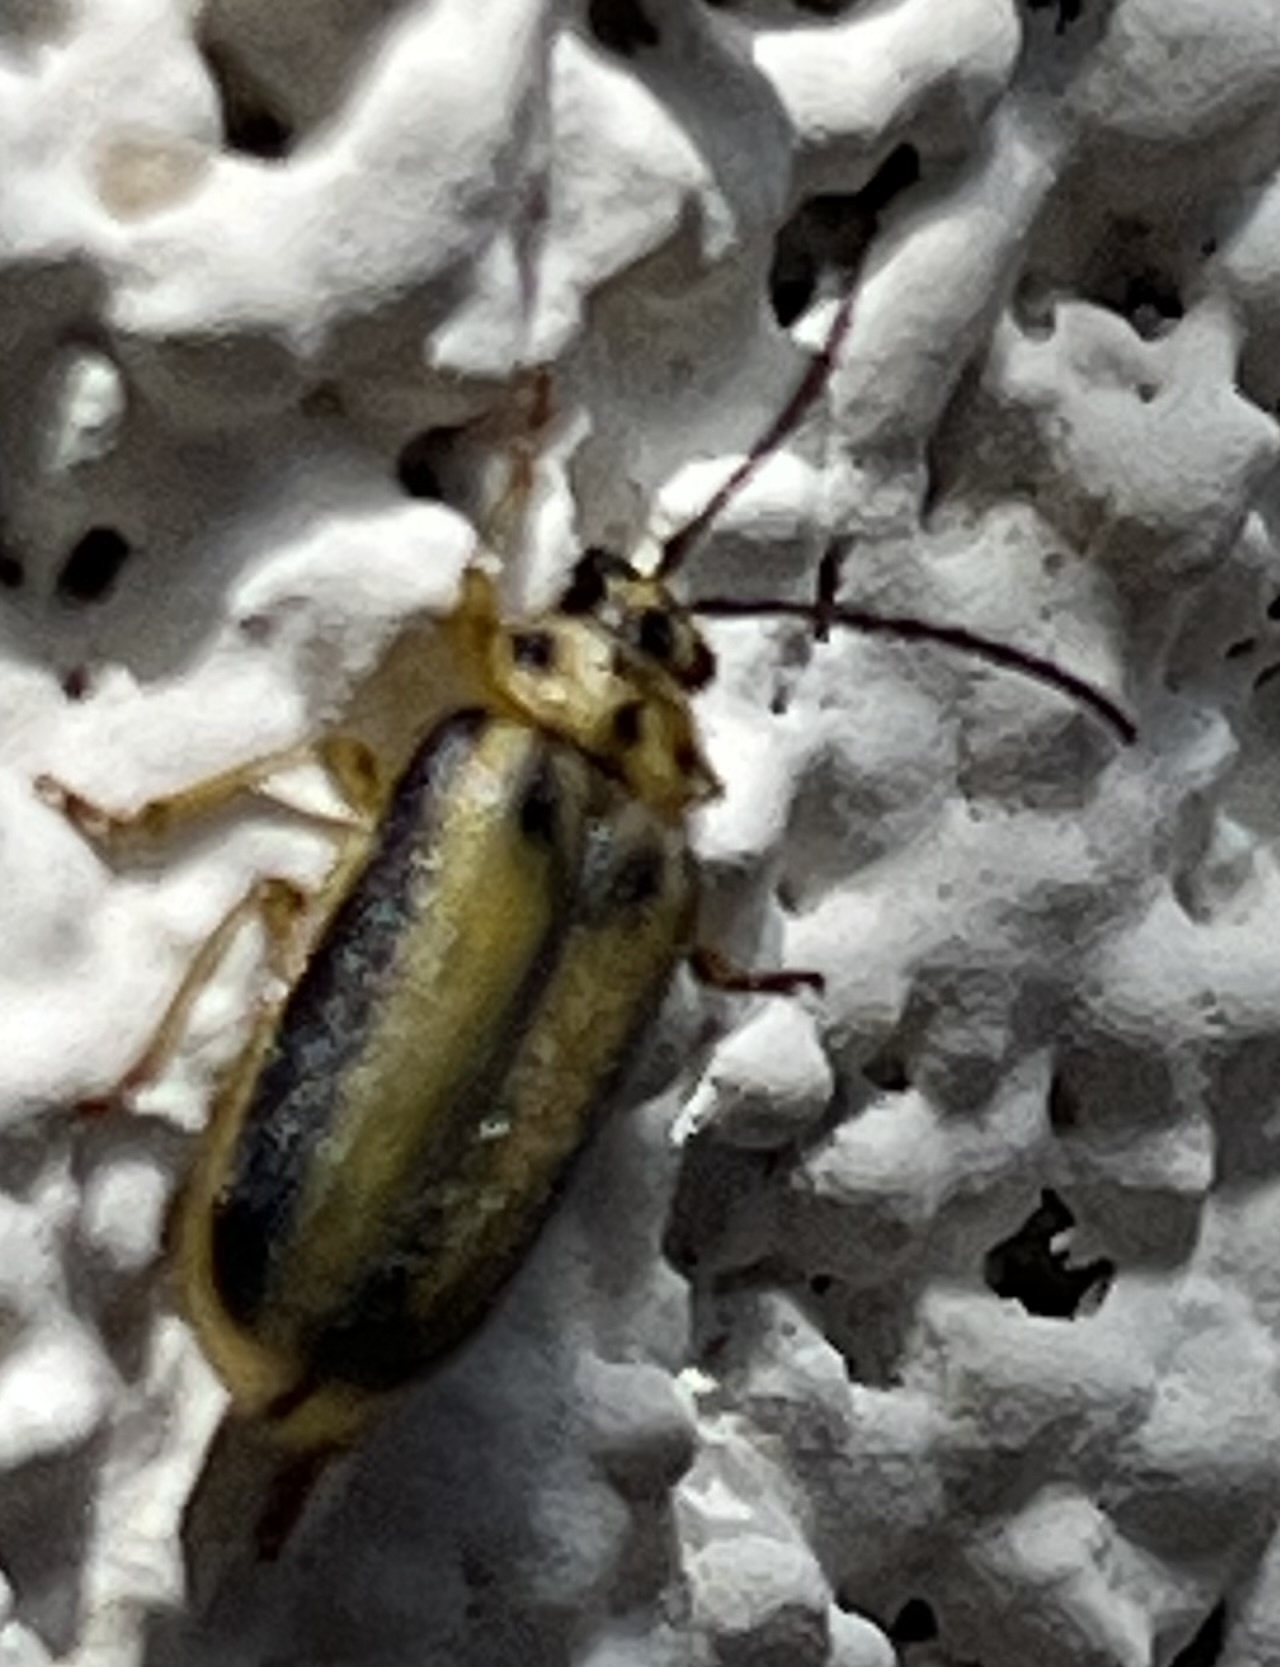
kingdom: Animalia
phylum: Arthropoda
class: Insecta
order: Coleoptera
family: Chrysomelidae
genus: Xanthogaleruca
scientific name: Xanthogaleruca luteola
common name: Elm leaf beetle
